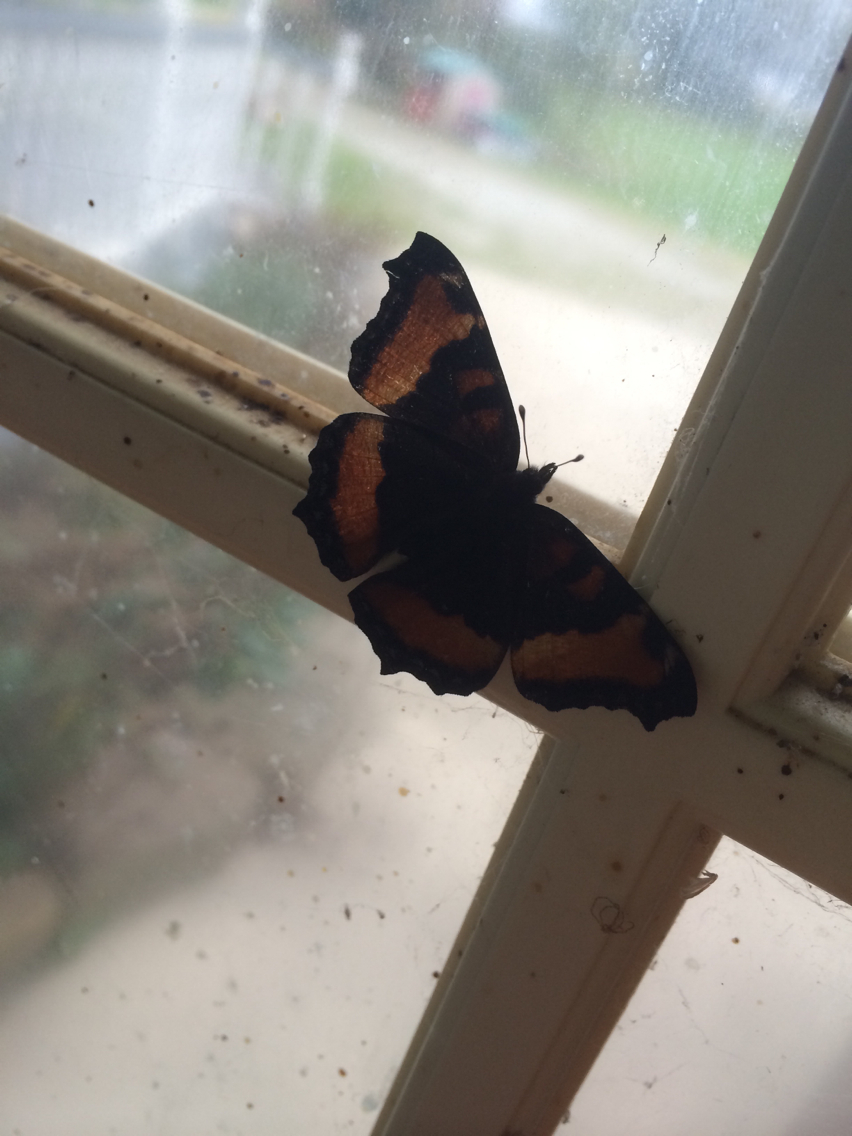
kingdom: Animalia
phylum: Arthropoda
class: Insecta
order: Lepidoptera
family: Nymphalidae
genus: Aglais
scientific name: Aglais milberti
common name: Milbert's tortoiseshell
